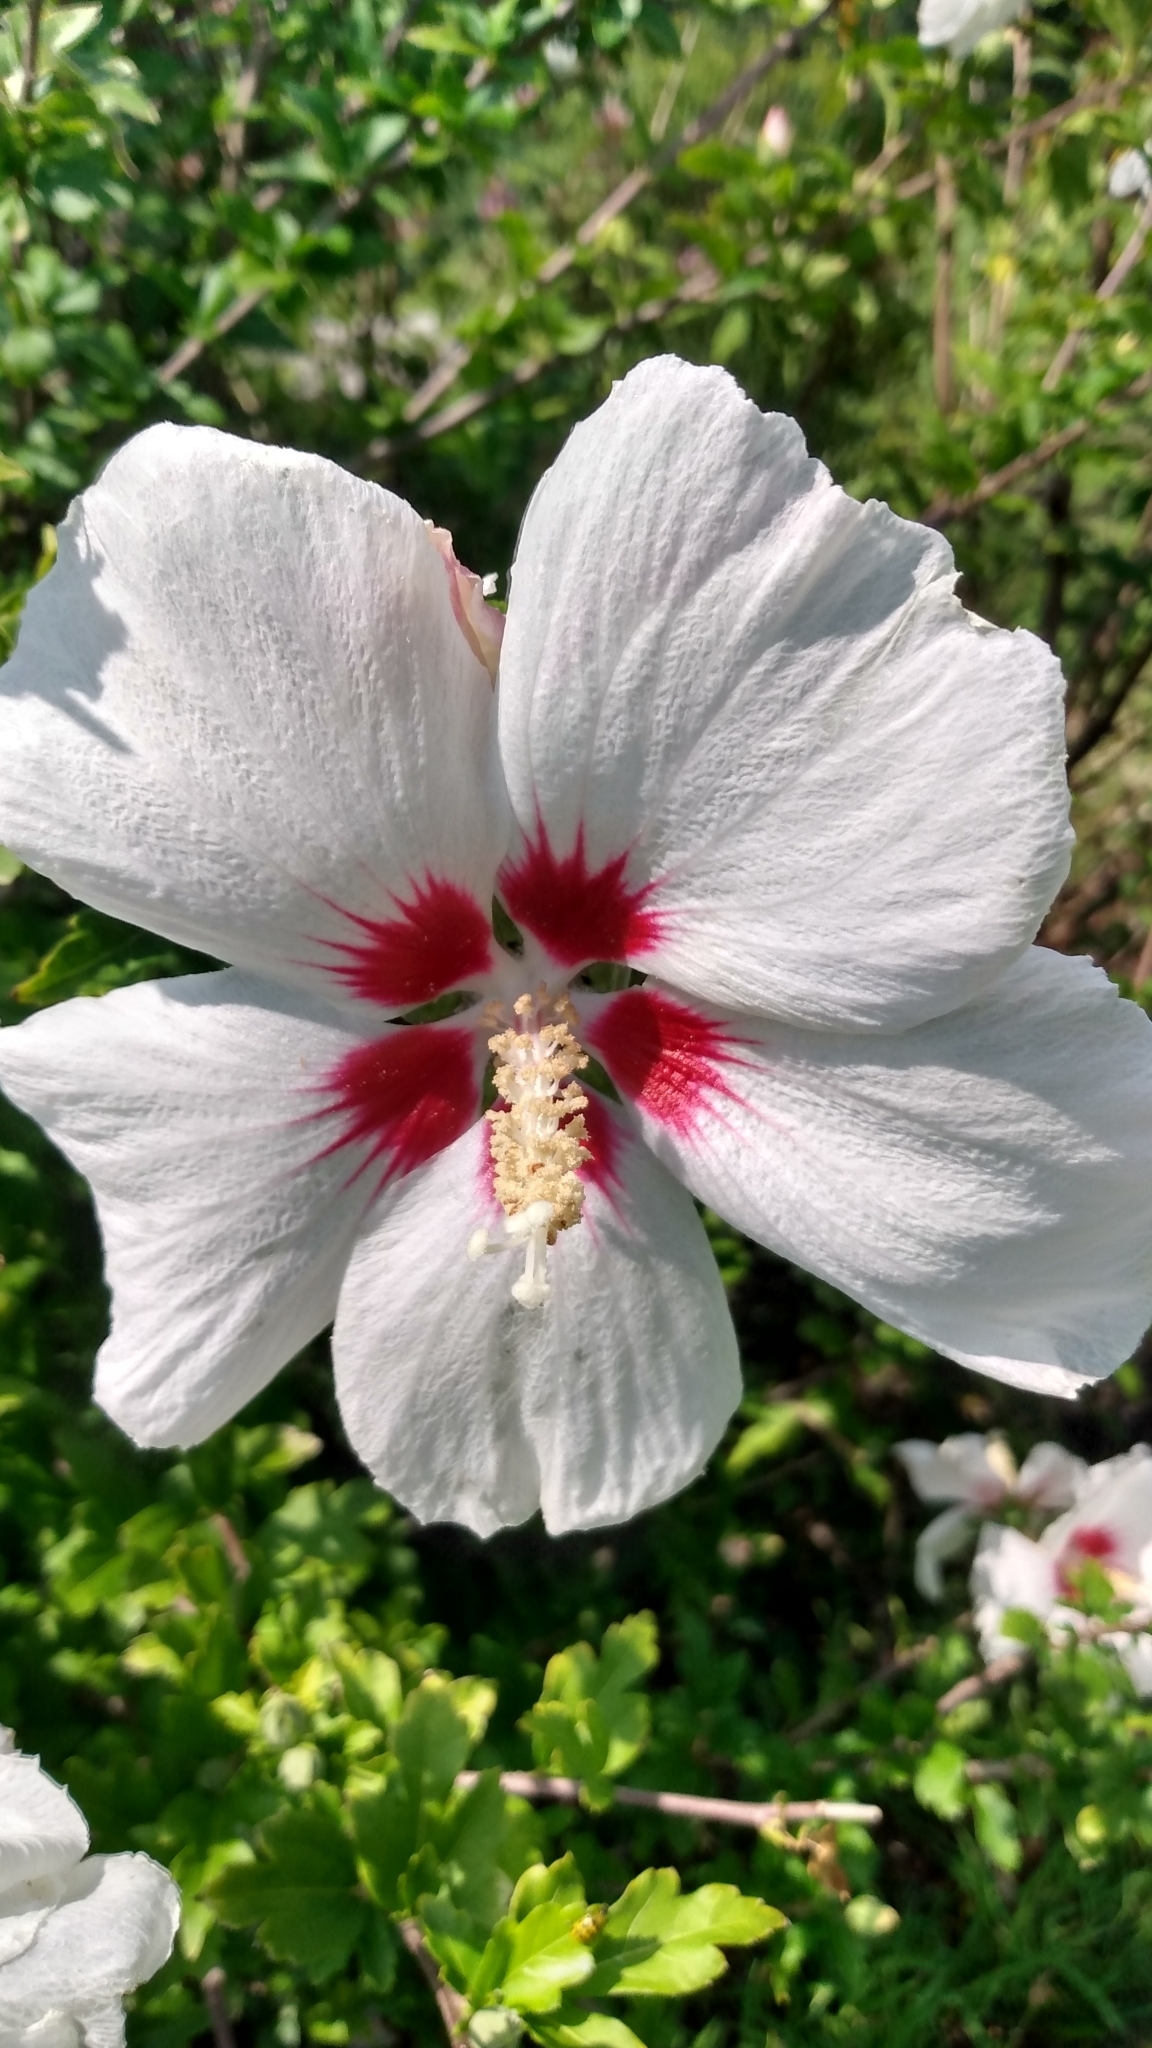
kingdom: Plantae
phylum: Tracheophyta
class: Magnoliopsida
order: Malvales
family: Malvaceae
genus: Hibiscus
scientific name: Hibiscus syriacus
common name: Syrian ketmia
